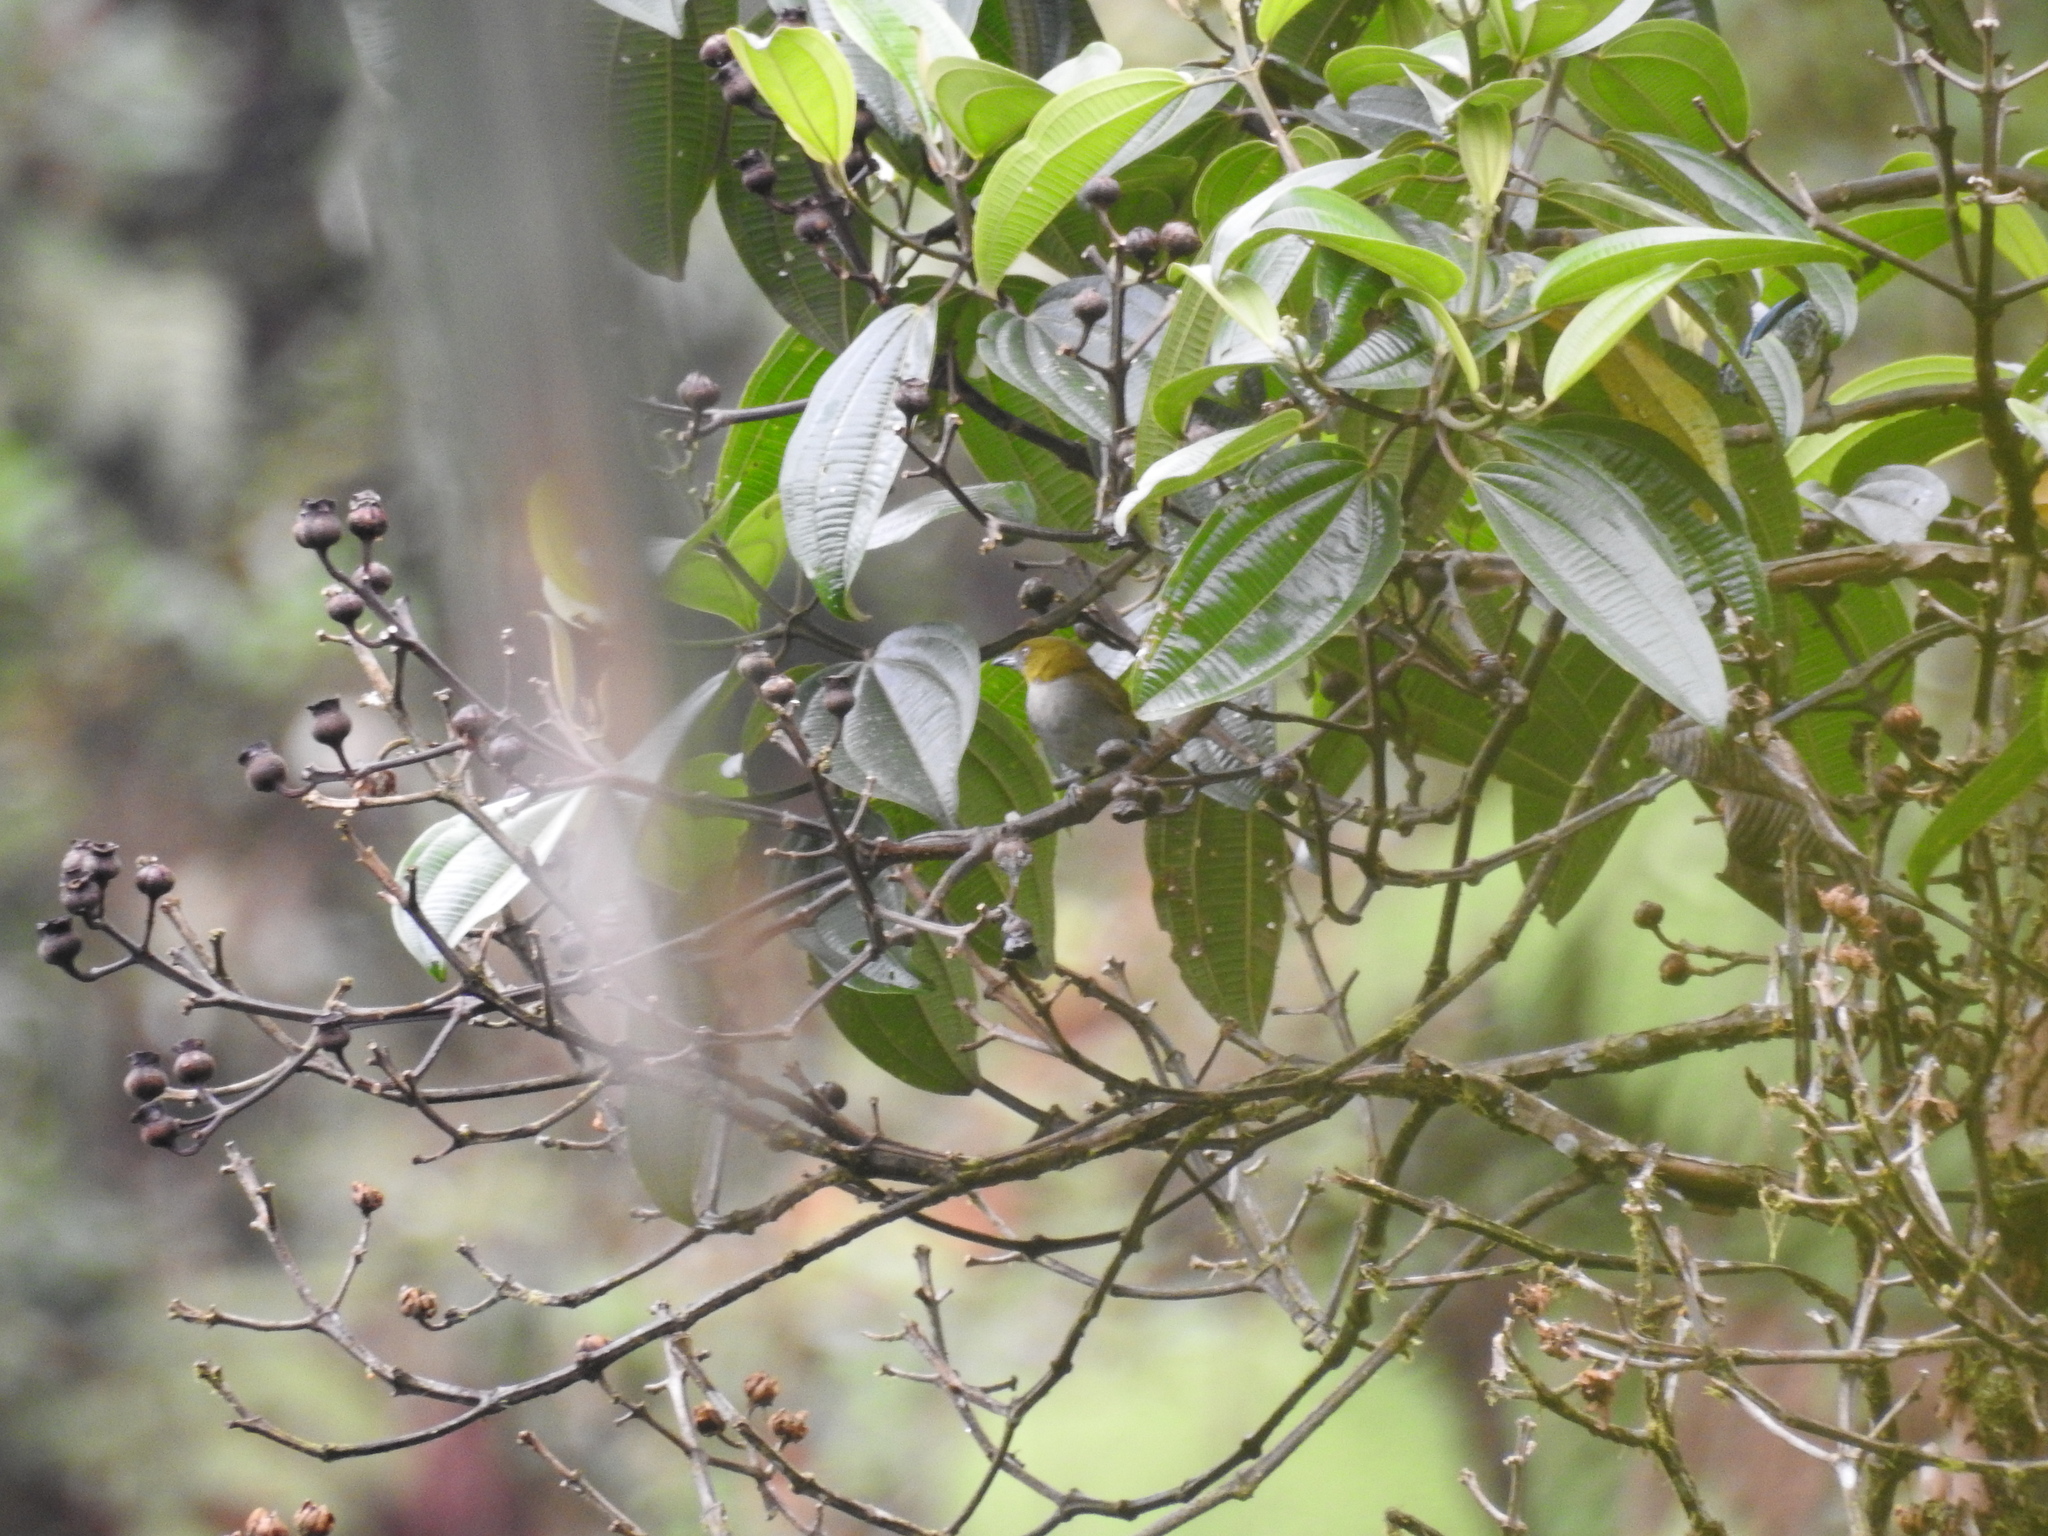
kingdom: Animalia
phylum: Chordata
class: Aves
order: Passeriformes
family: Passerellidae
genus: Chlorospingus
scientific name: Chlorospingus flavigularis
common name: Yellow-throated bush-tanager
